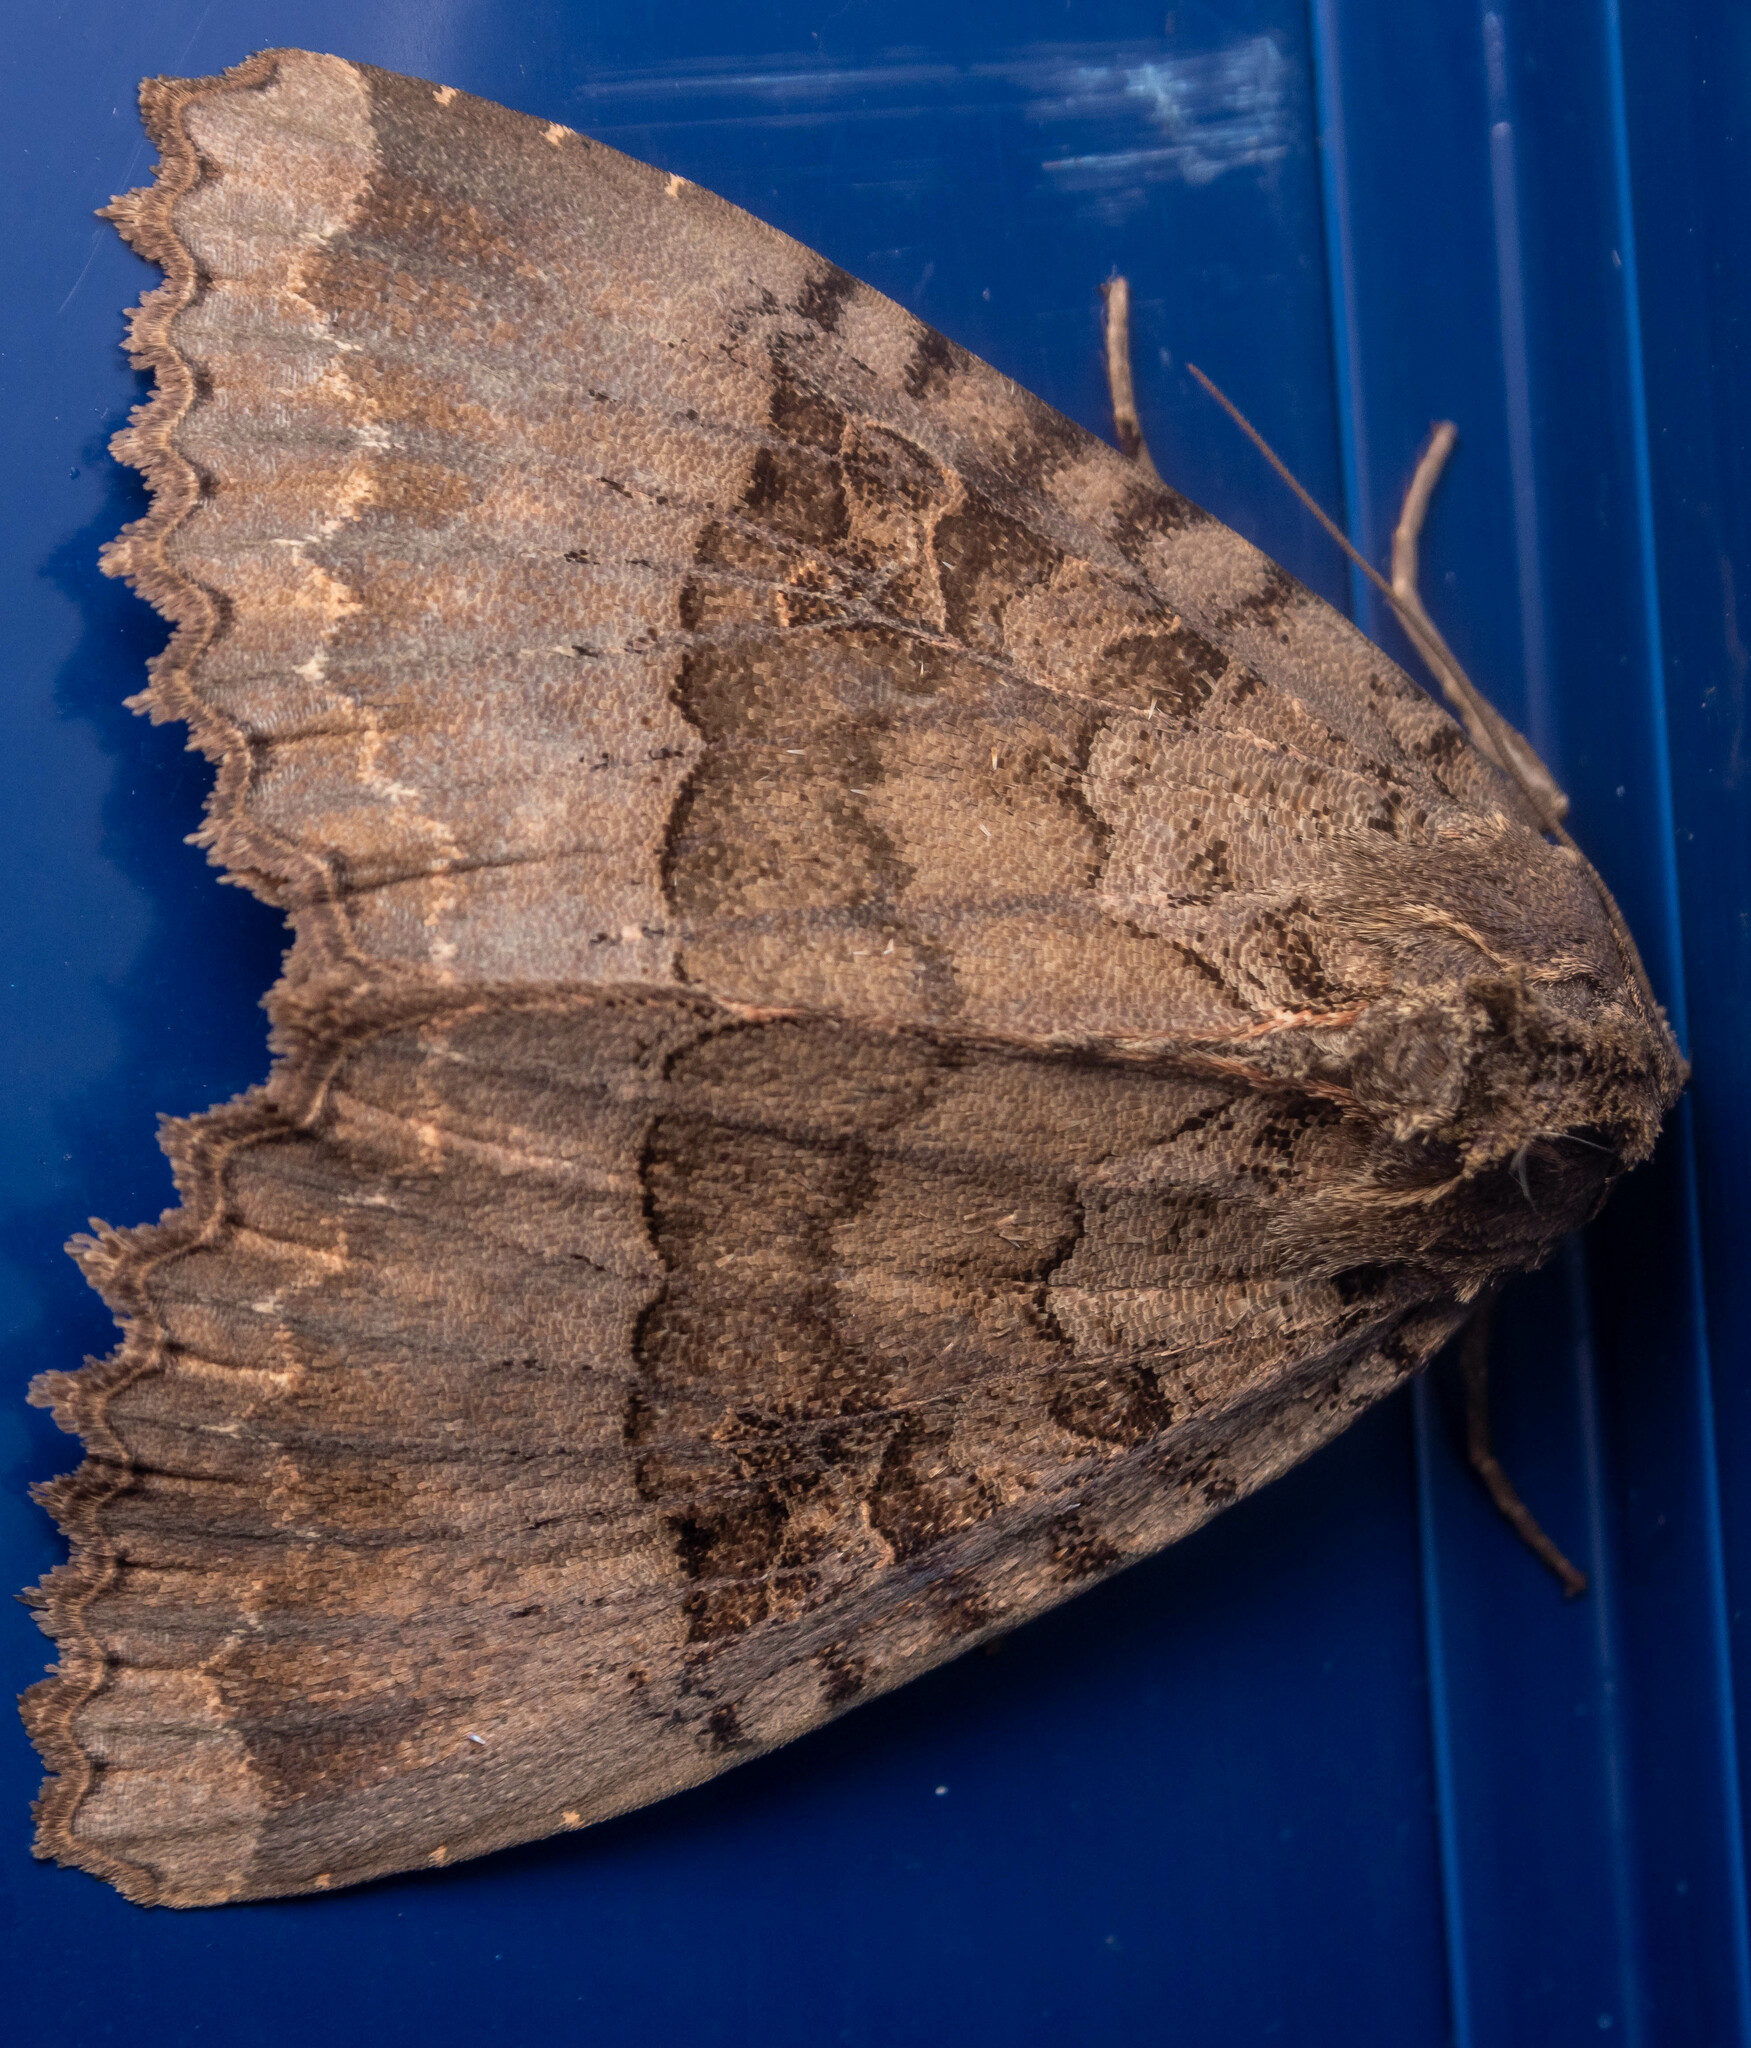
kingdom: Animalia
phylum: Arthropoda
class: Insecta
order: Lepidoptera
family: Noctuidae
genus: Mormo
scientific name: Mormo maura
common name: Old lady
